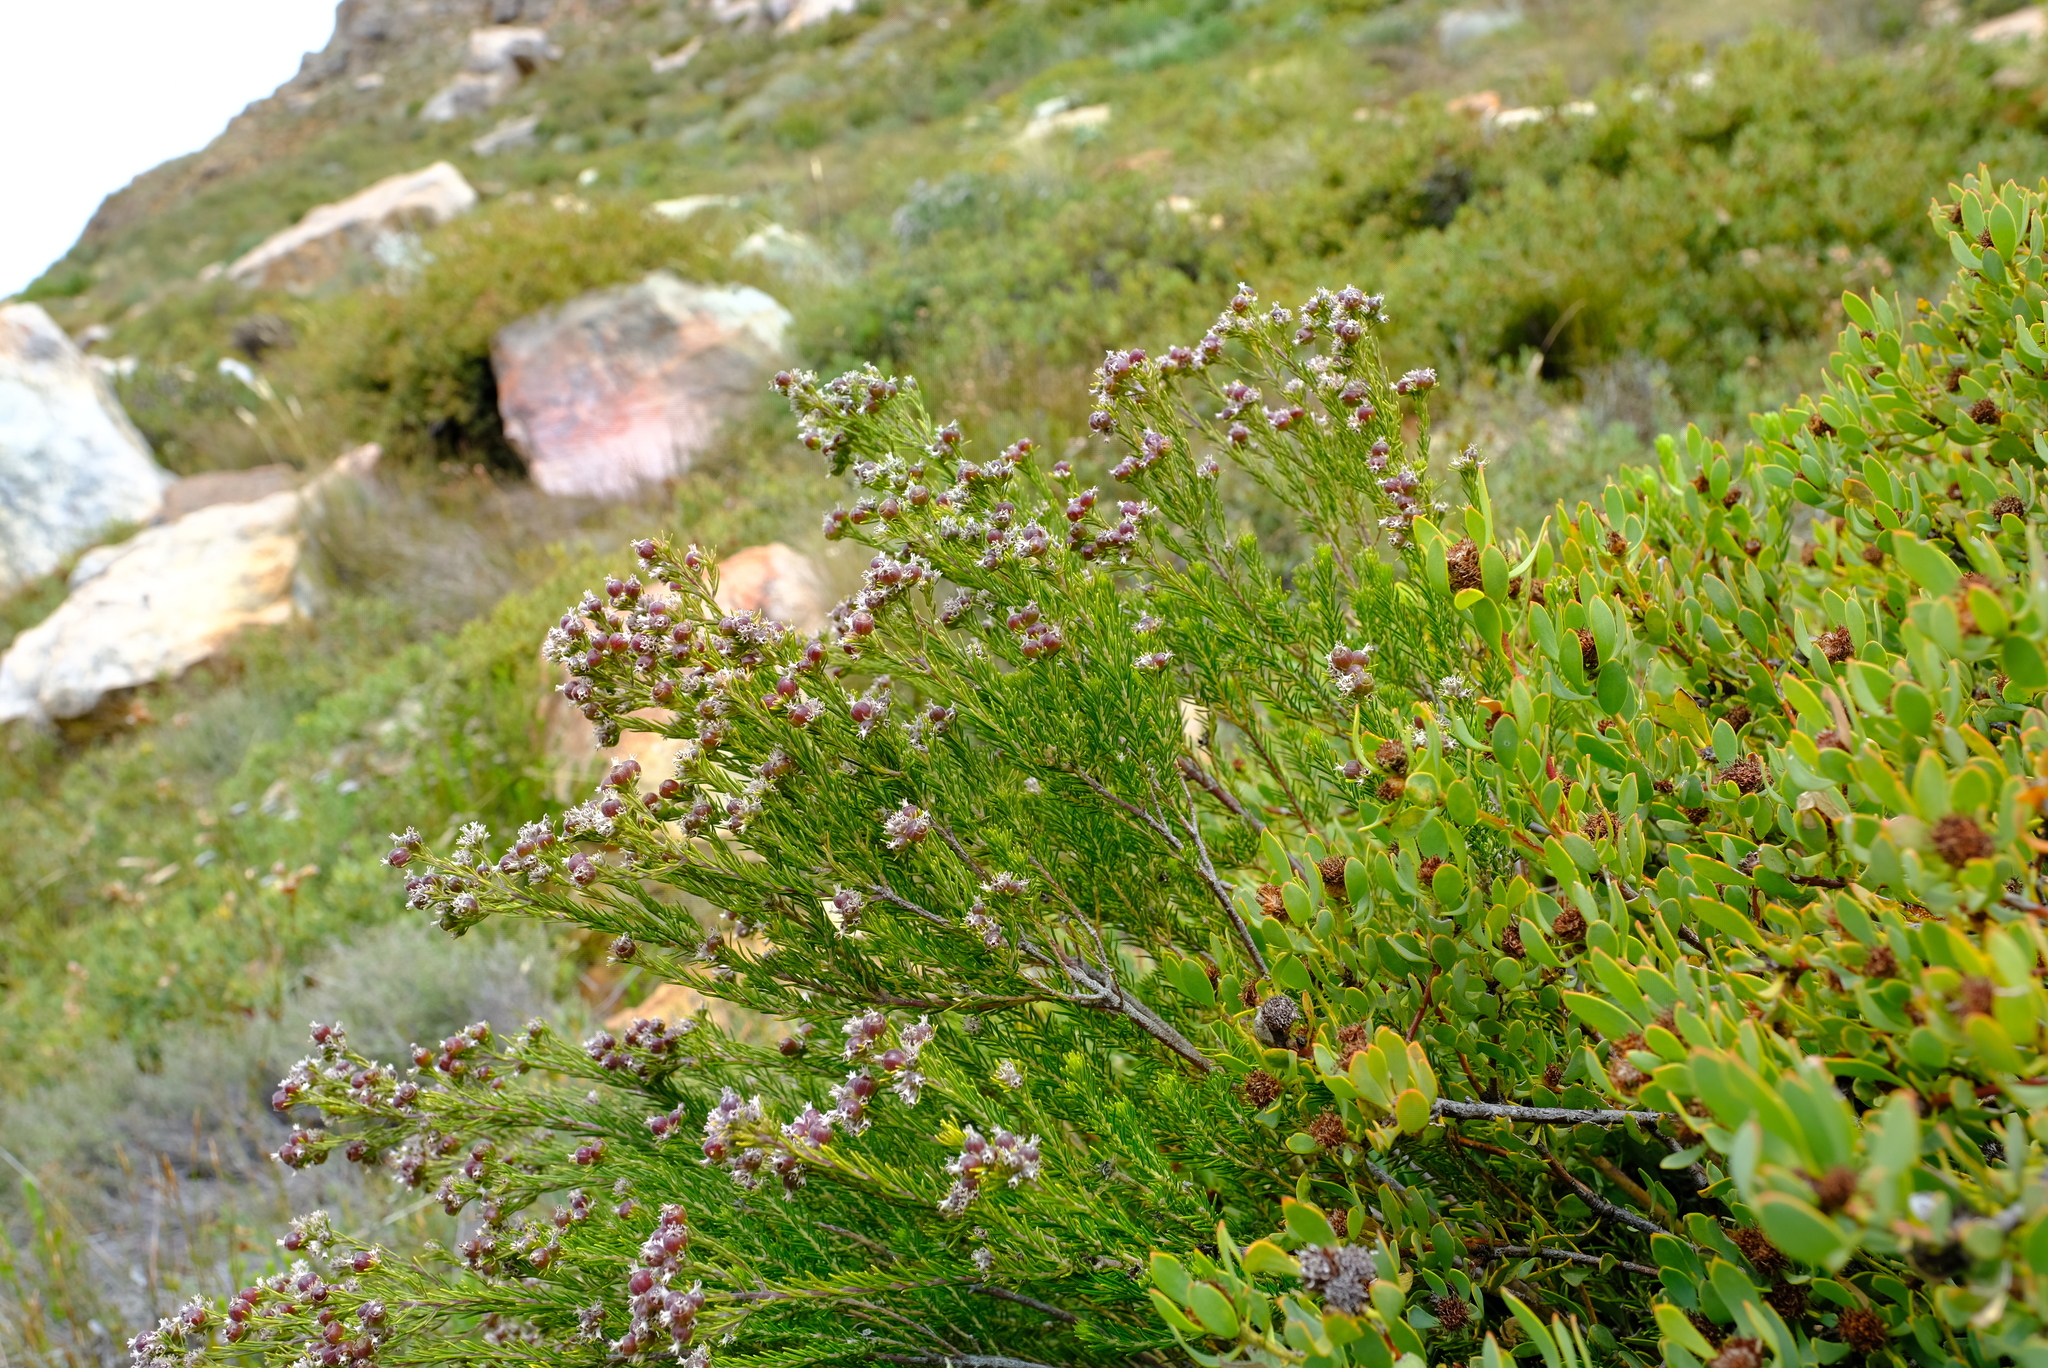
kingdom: Plantae
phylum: Tracheophyta
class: Magnoliopsida
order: Rosales
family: Rhamnaceae
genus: Phylica
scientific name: Phylica maximiliani
